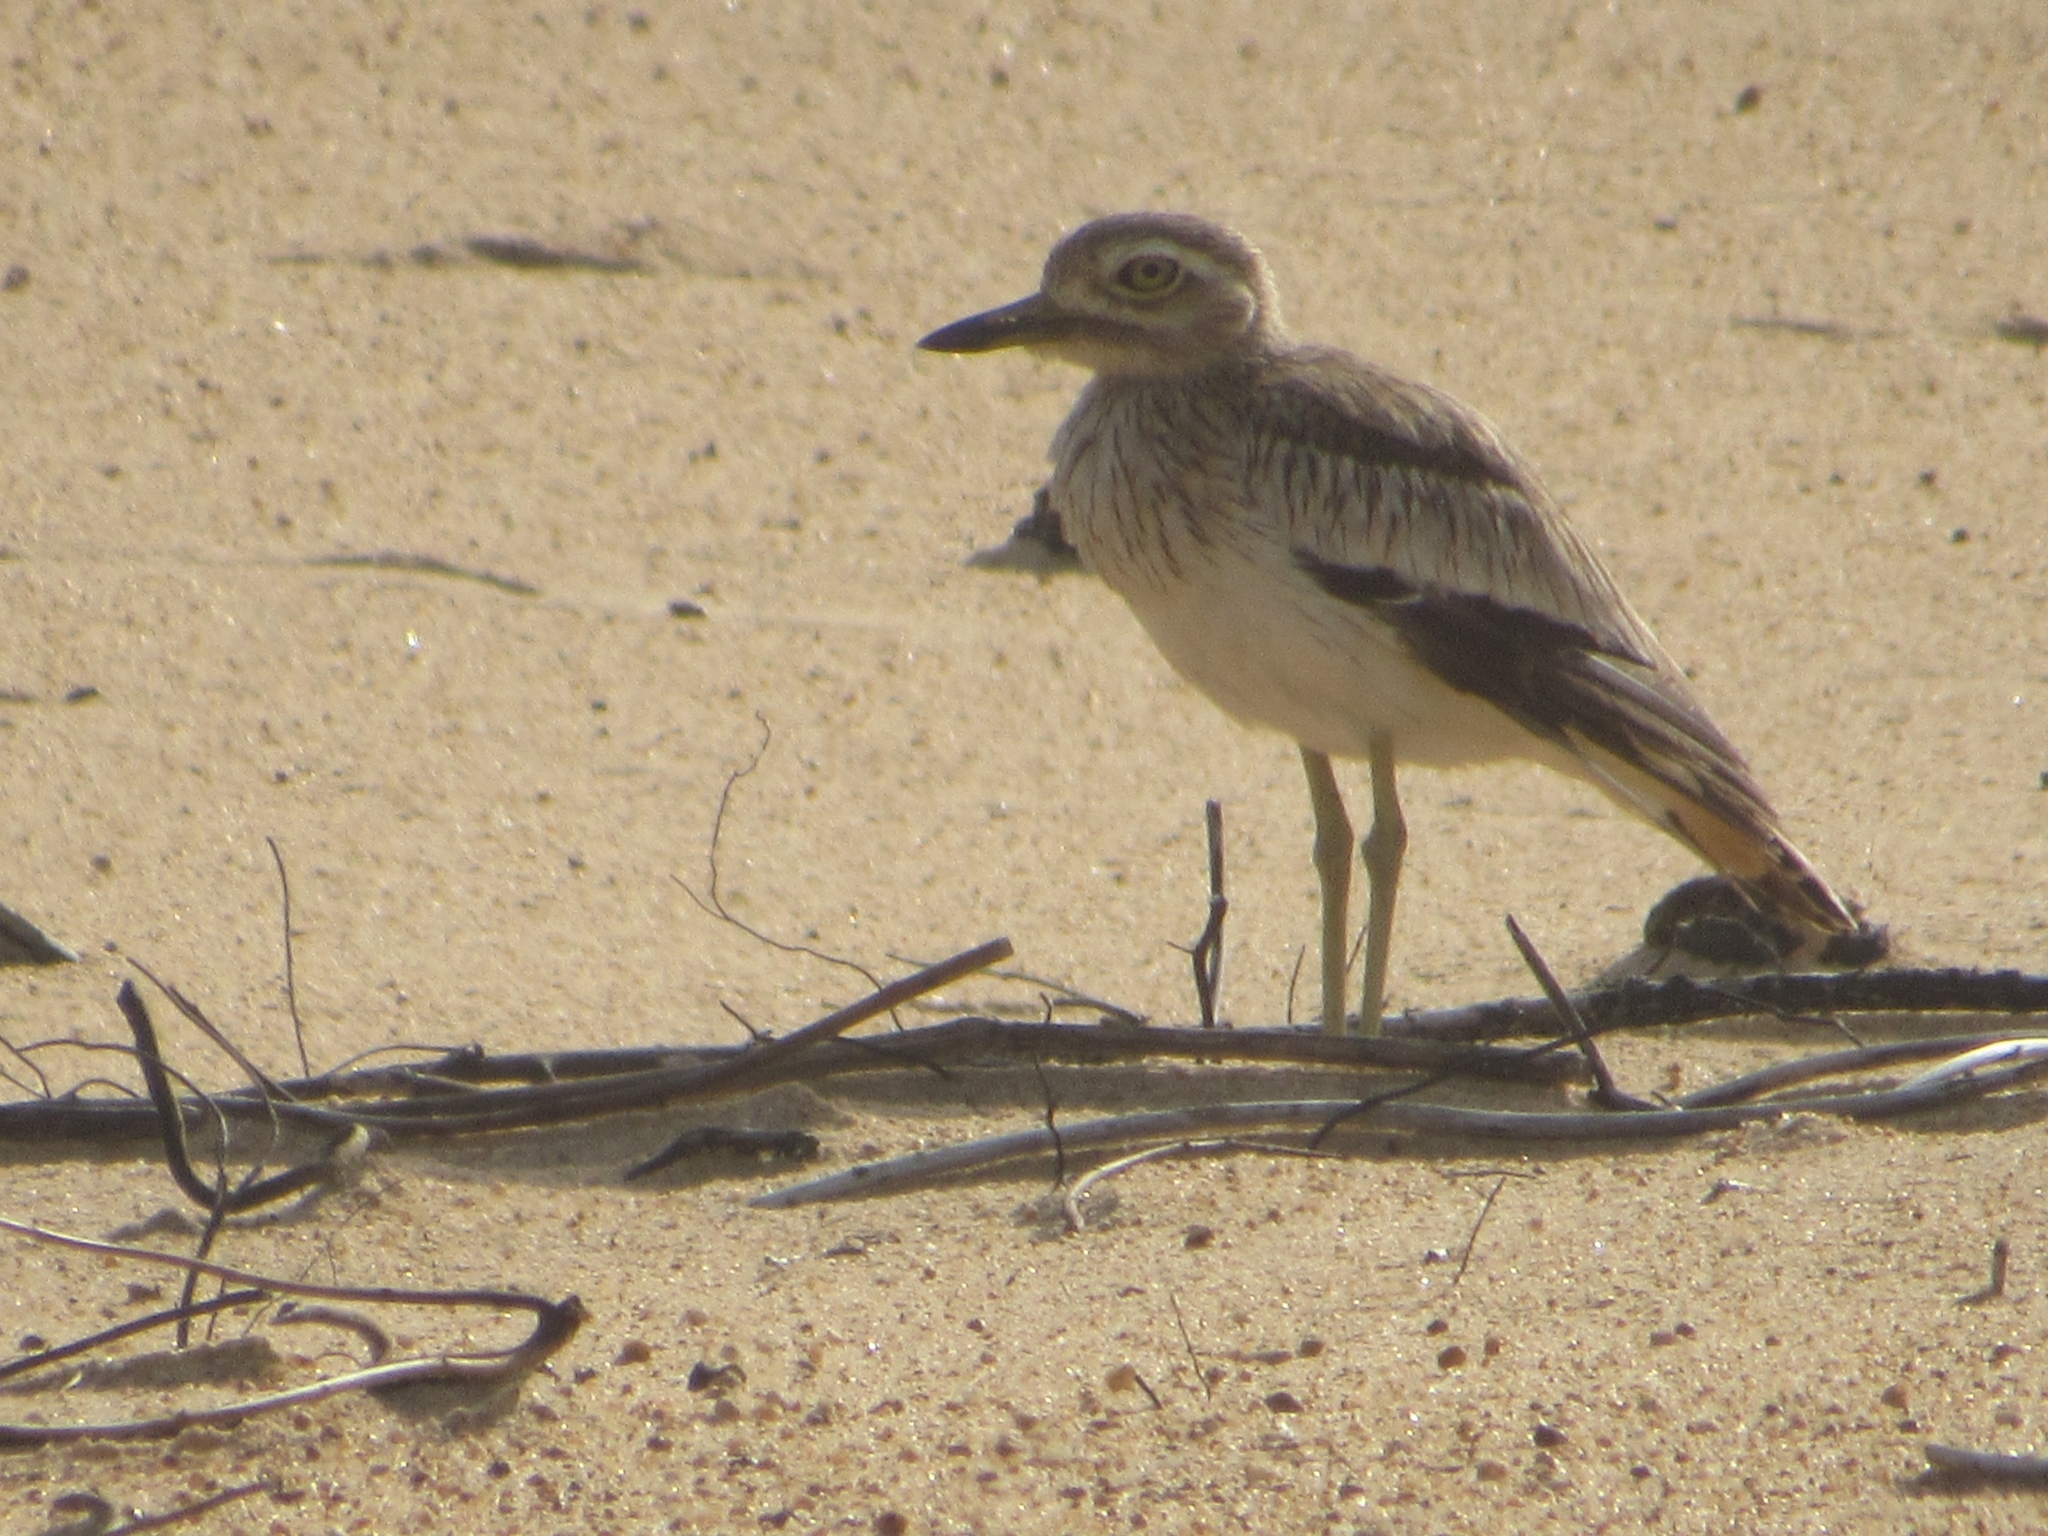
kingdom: Animalia
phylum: Chordata
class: Aves
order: Charadriiformes
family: Burhinidae
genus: Burhinus
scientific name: Burhinus senegalensis
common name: Senegal thick-knee
